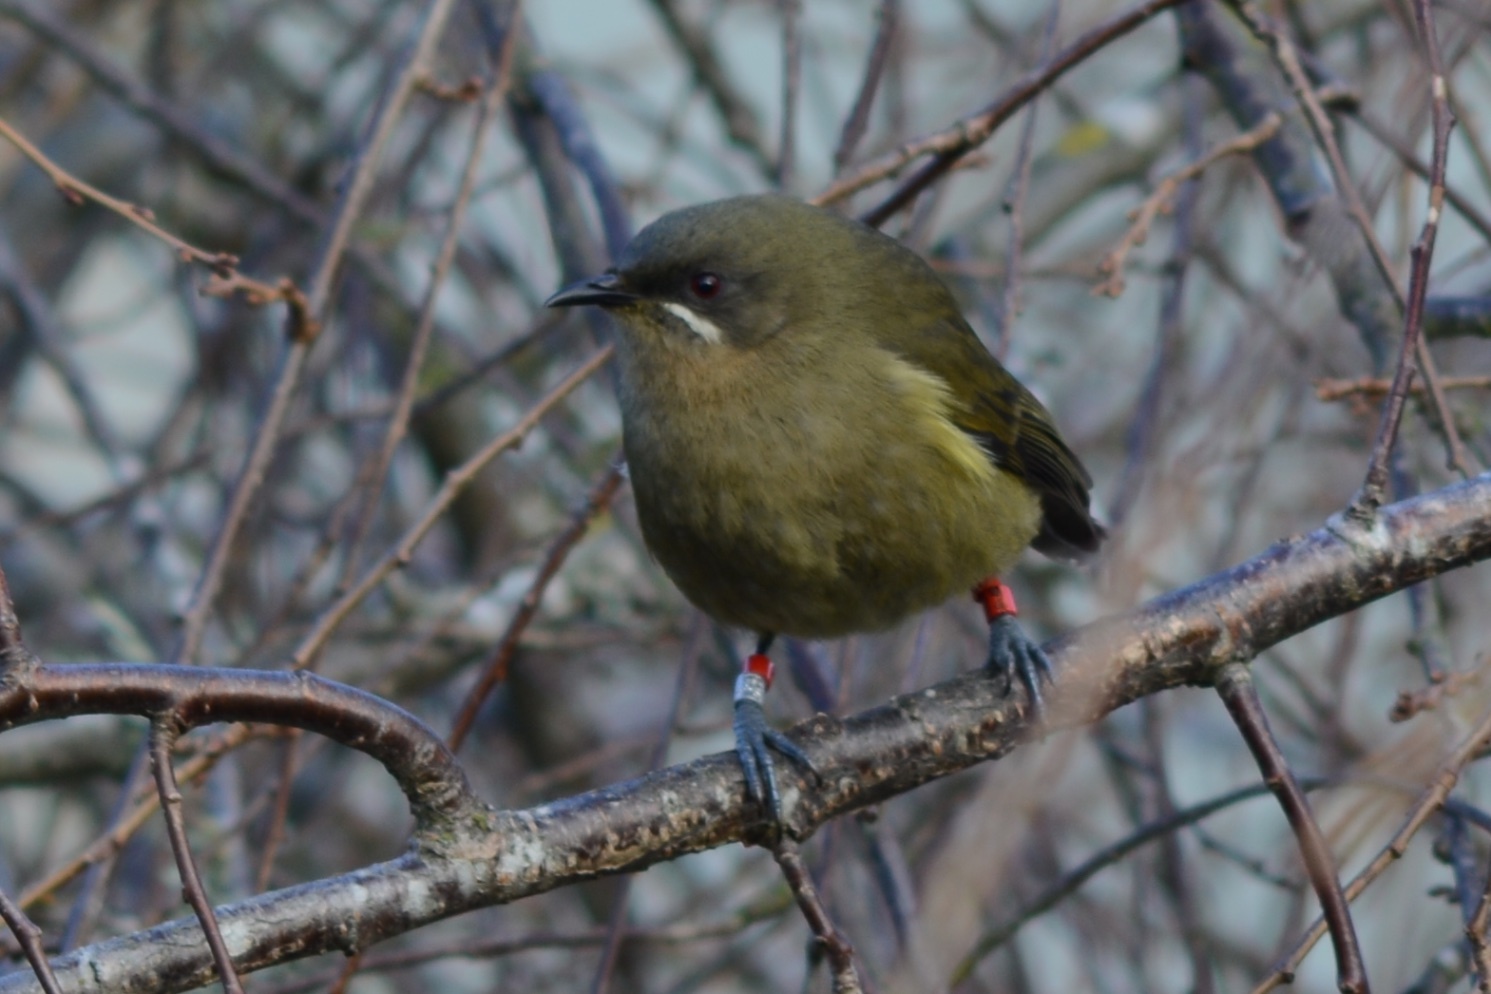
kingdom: Animalia
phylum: Chordata
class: Aves
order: Passeriformes
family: Meliphagidae
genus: Anthornis
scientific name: Anthornis melanura
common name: New zealand bellbird
